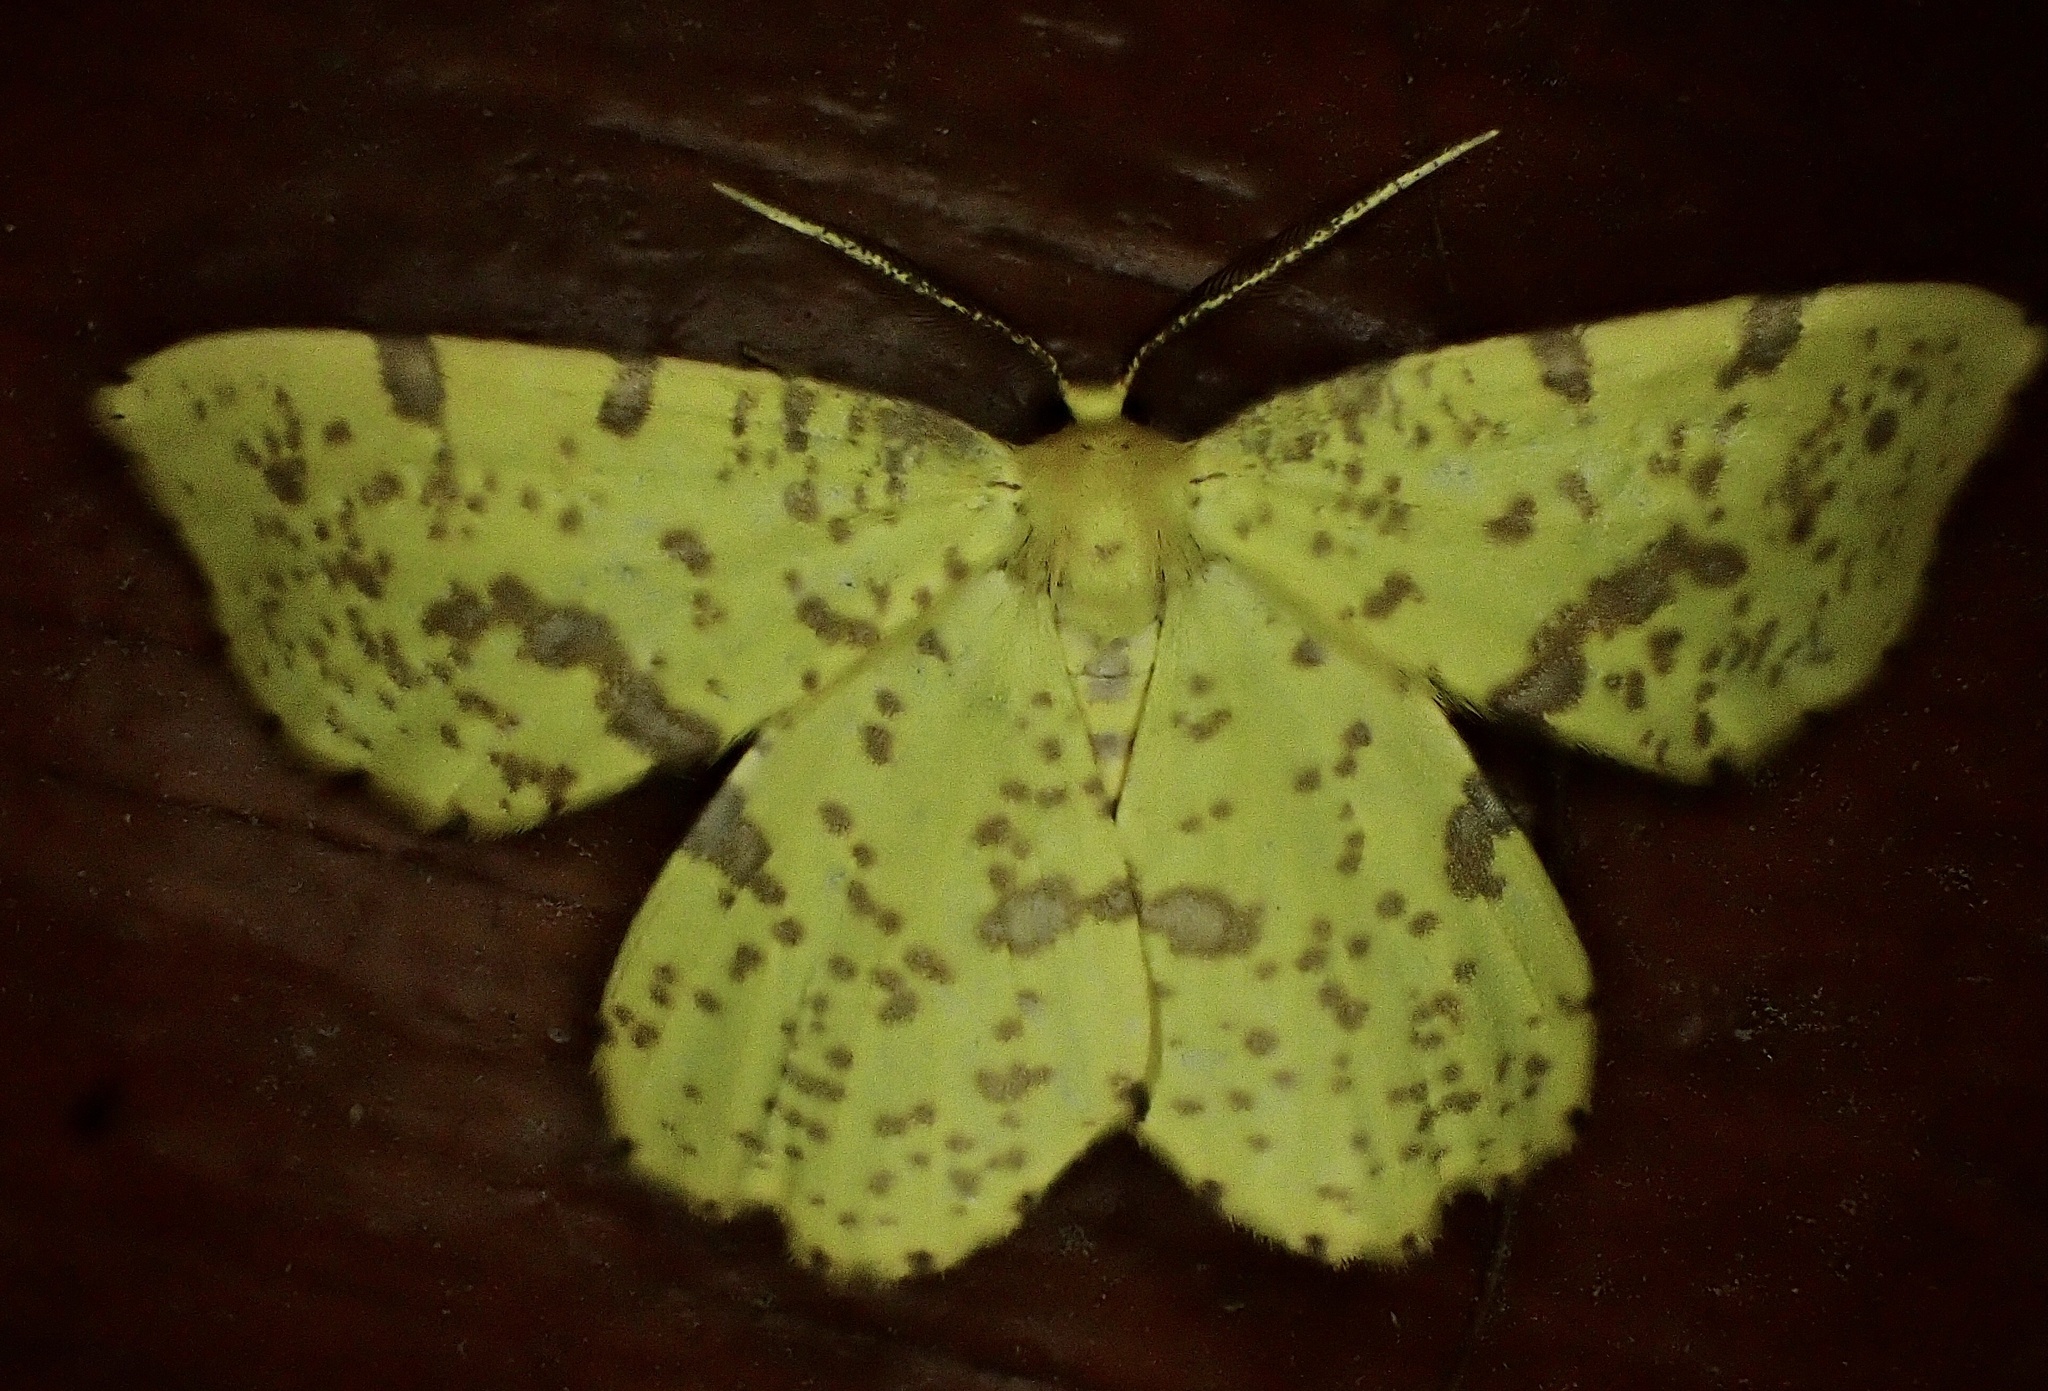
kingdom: Animalia
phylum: Arthropoda
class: Insecta
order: Lepidoptera
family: Geometridae
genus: Xanthotype
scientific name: Xanthotype
